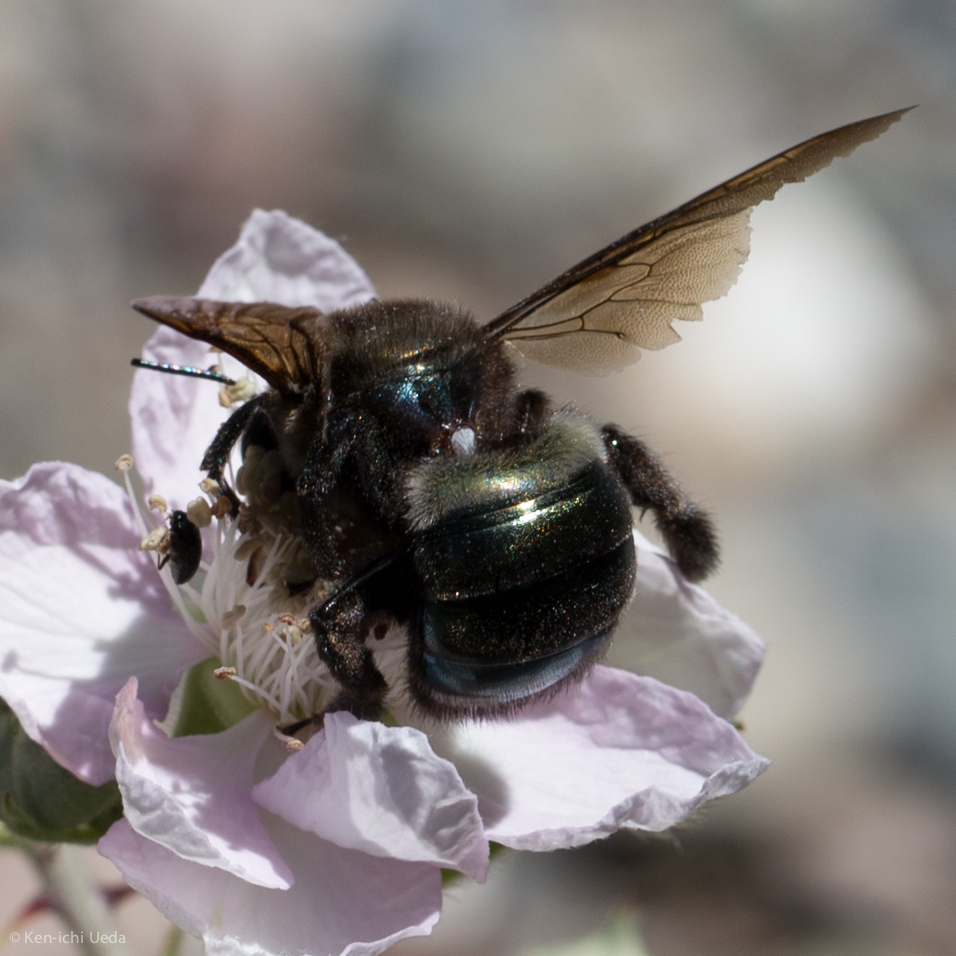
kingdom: Animalia
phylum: Arthropoda
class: Insecta
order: Hymenoptera
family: Apidae
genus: Xylocopa
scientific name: Xylocopa californica
